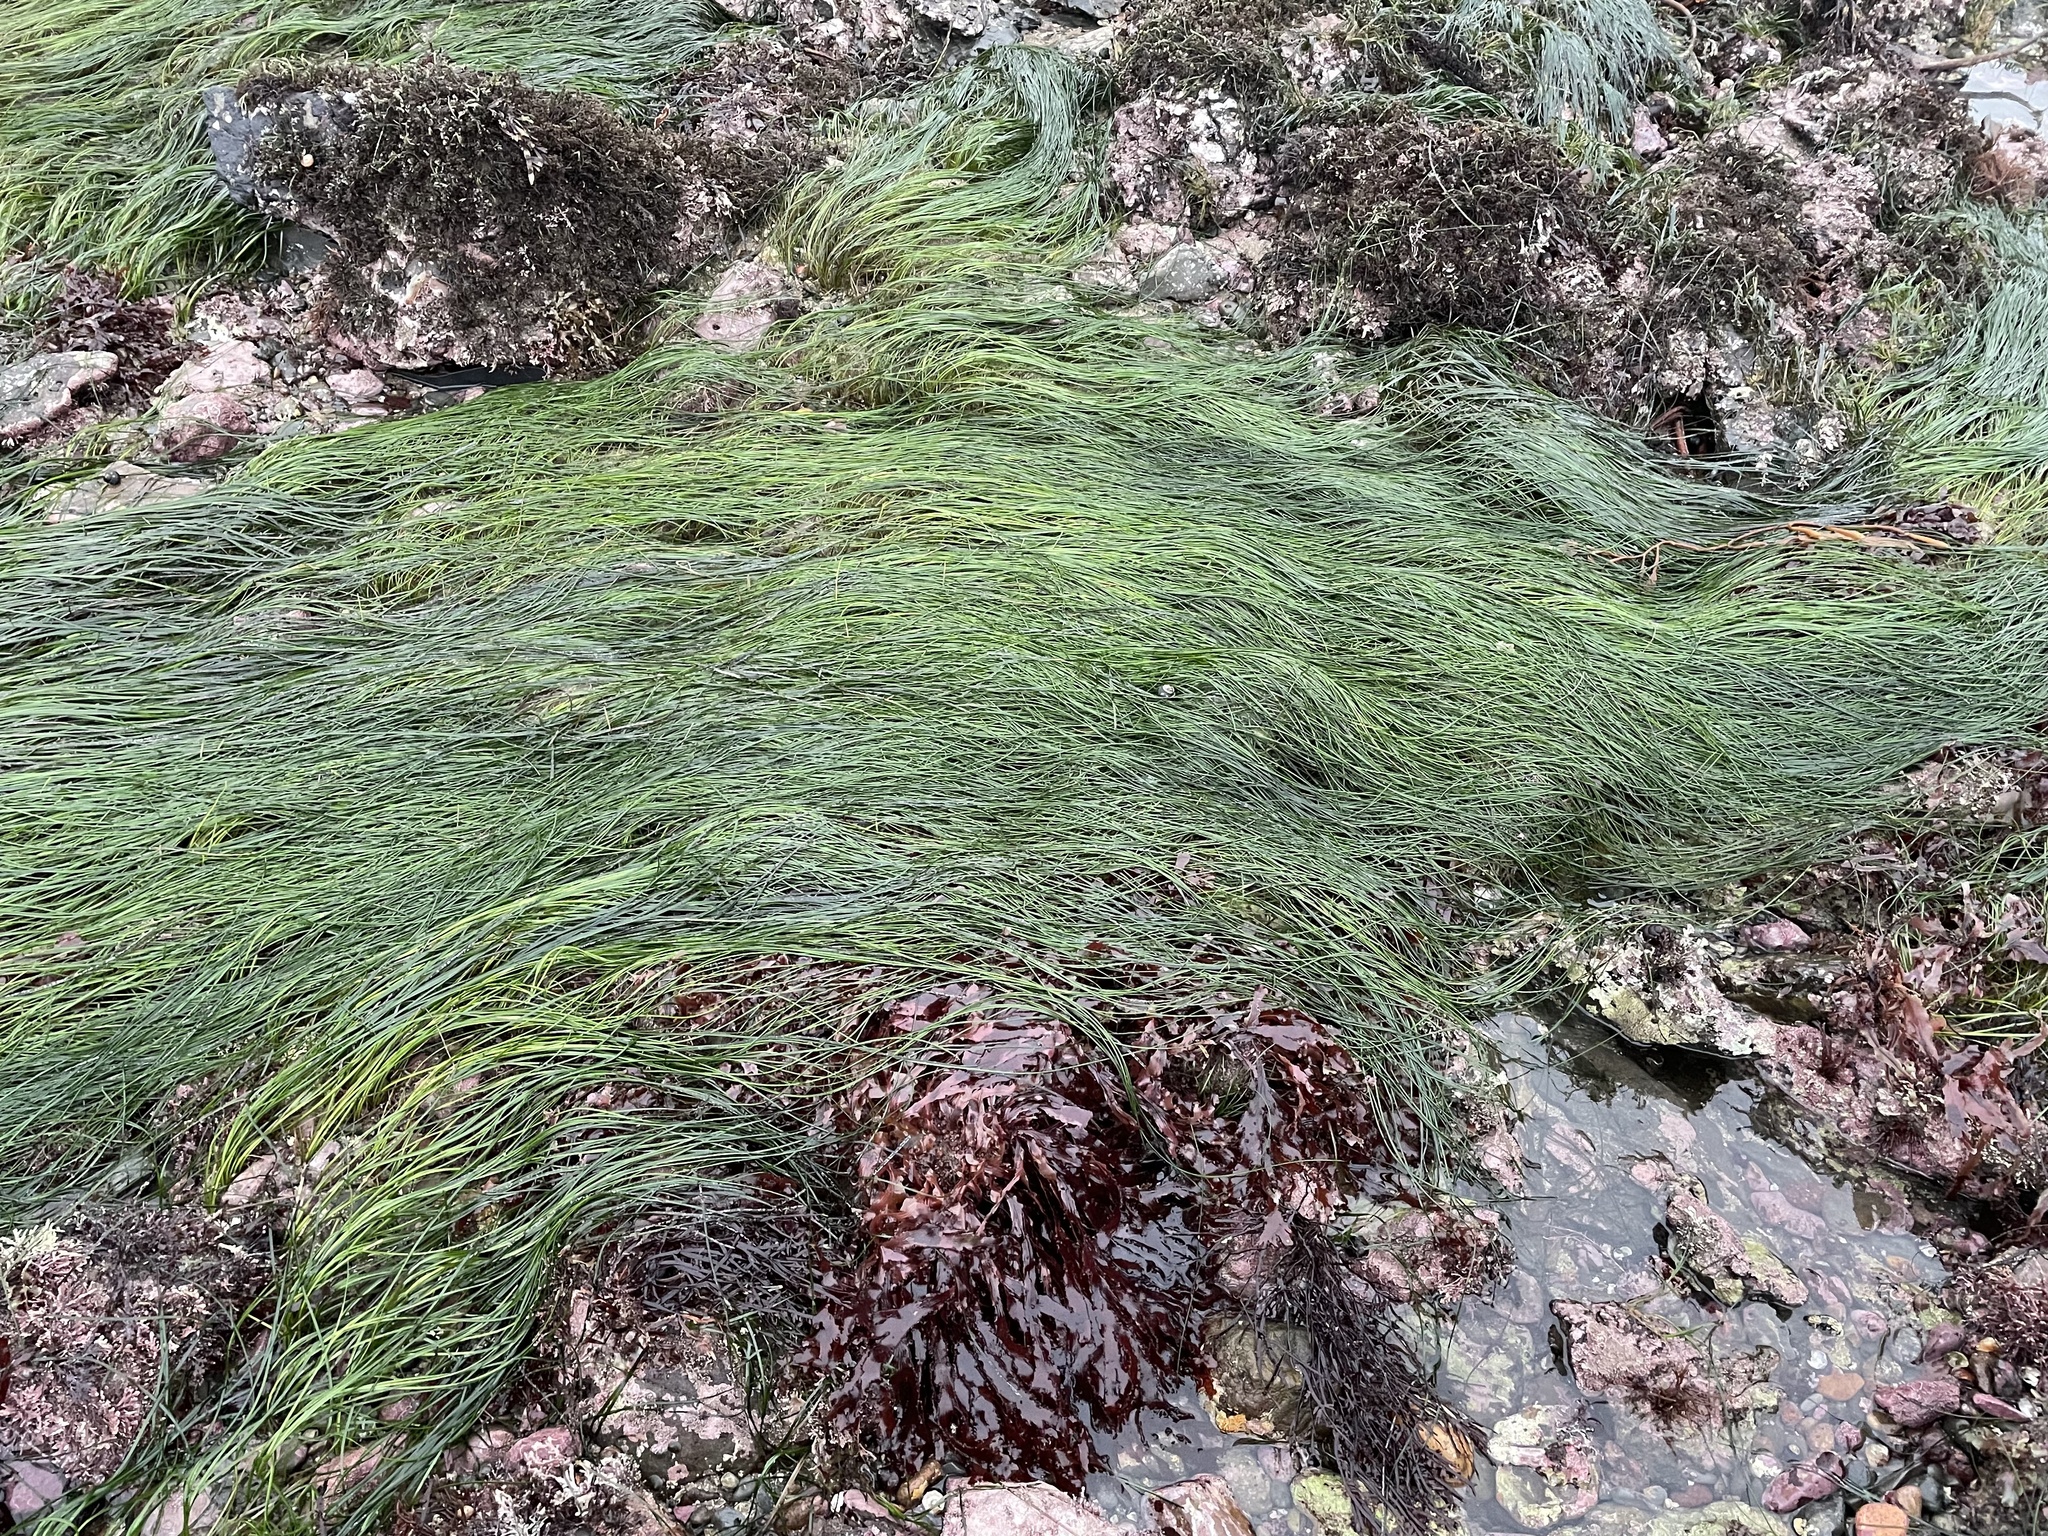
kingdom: Plantae
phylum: Tracheophyta
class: Liliopsida
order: Alismatales
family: Zosteraceae
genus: Phyllospadix
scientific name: Phyllospadix torreyi
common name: Surfgrass
